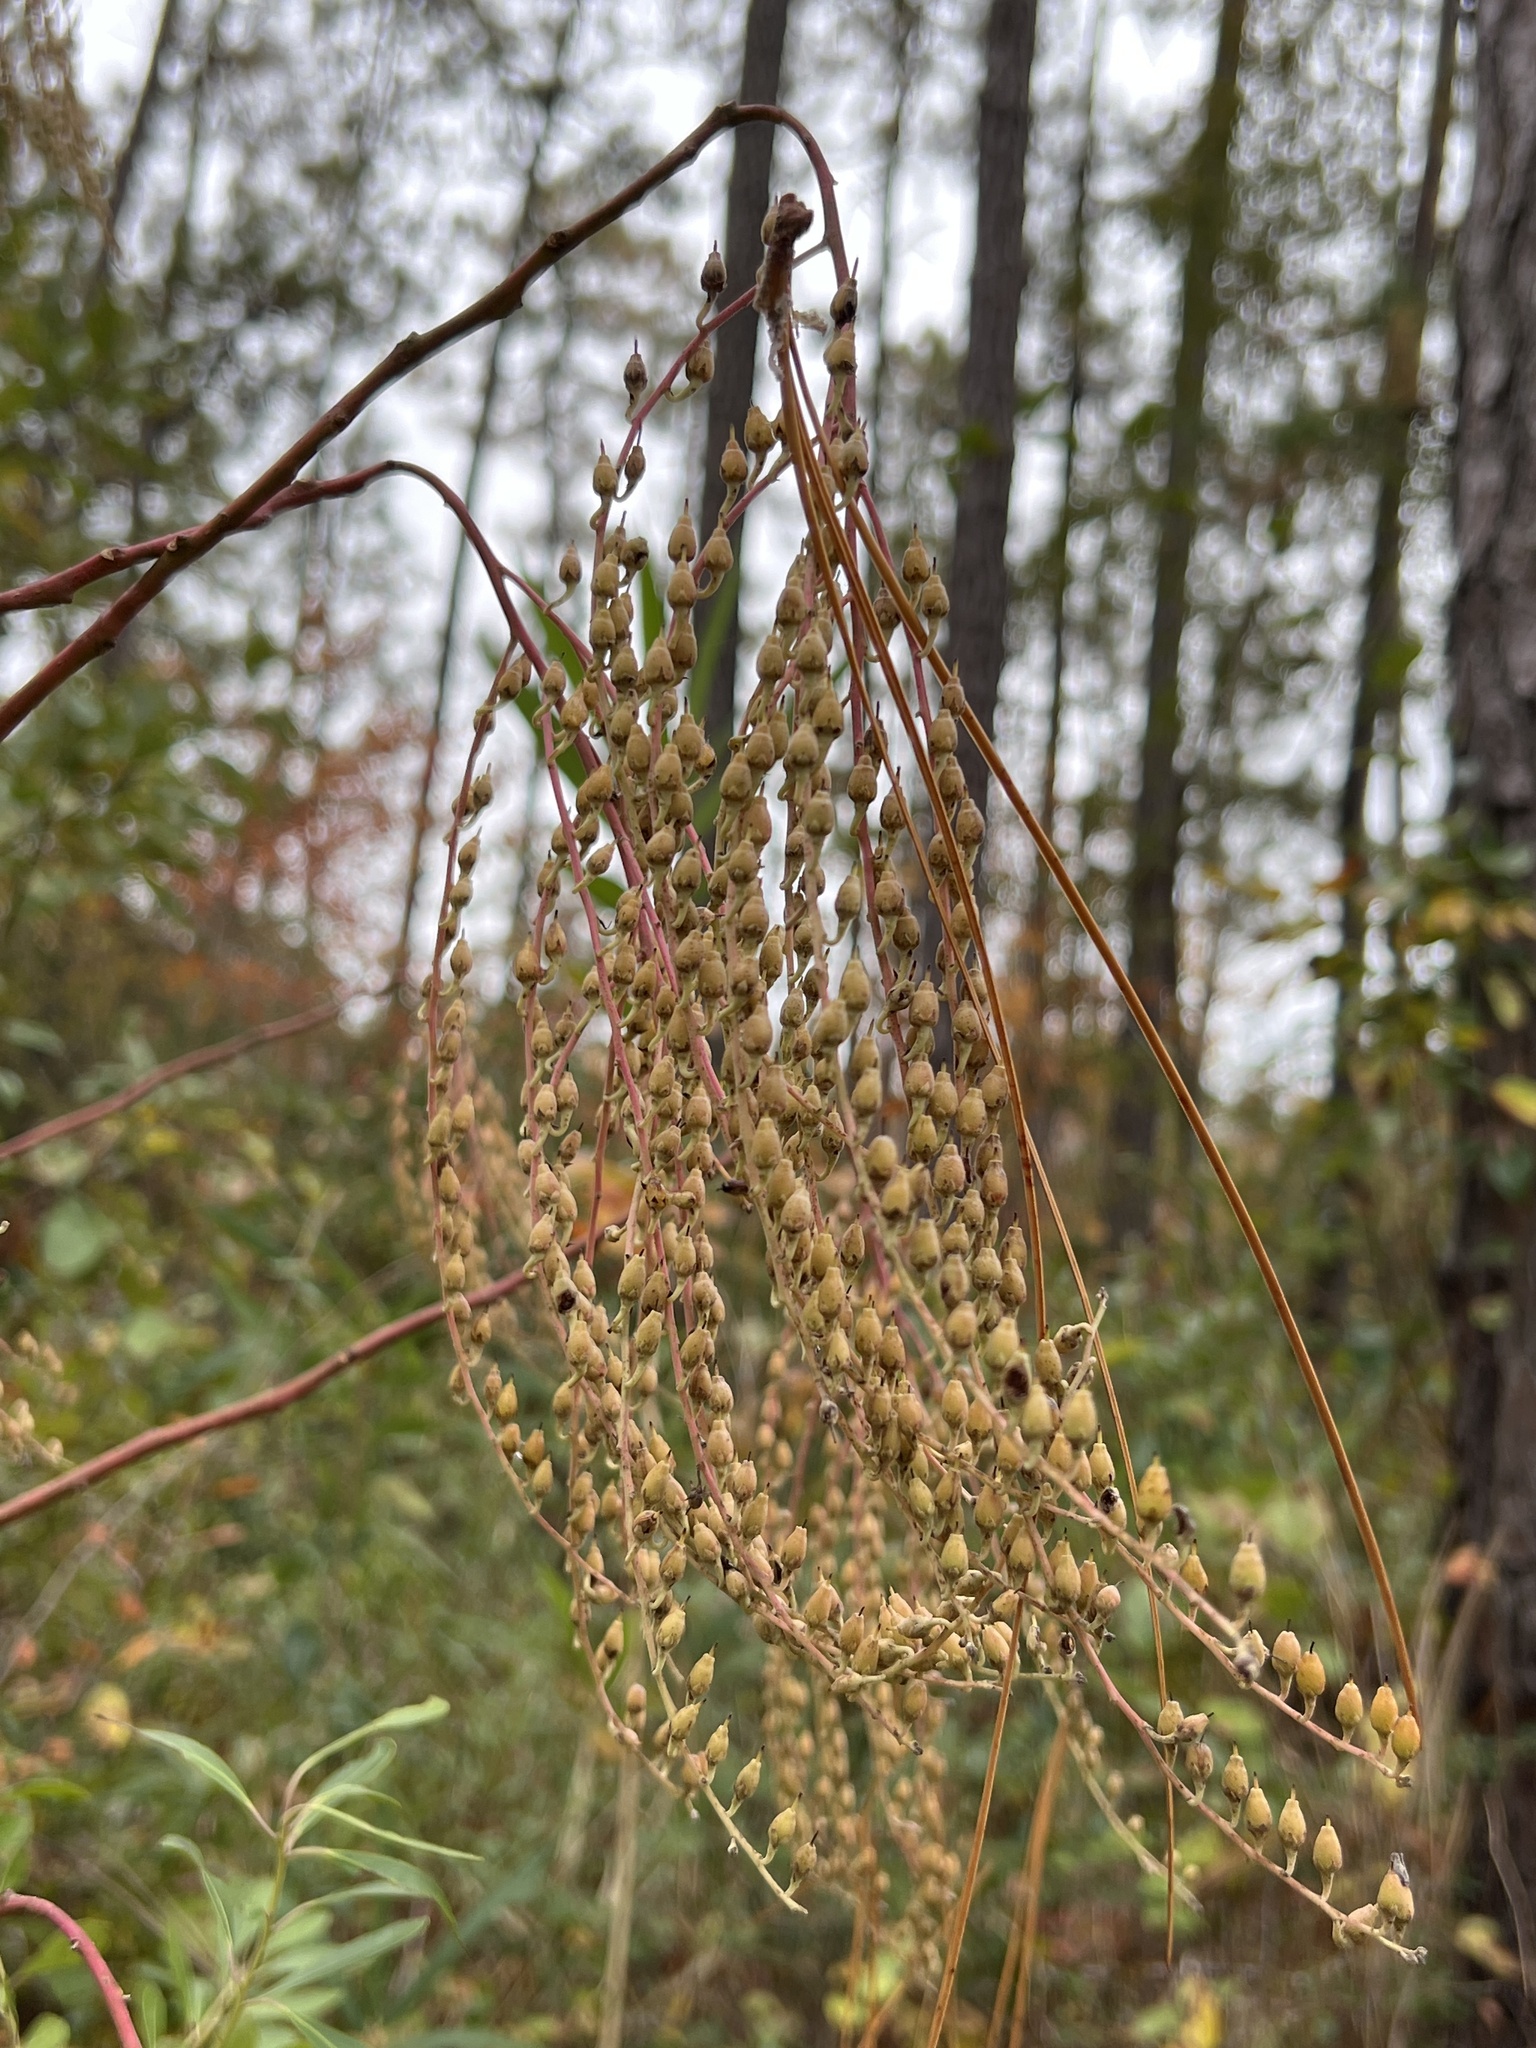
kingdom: Plantae
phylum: Tracheophyta
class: Magnoliopsida
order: Ericales
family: Ericaceae
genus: Oxydendrum
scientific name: Oxydendrum arboreum
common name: Sourwood
